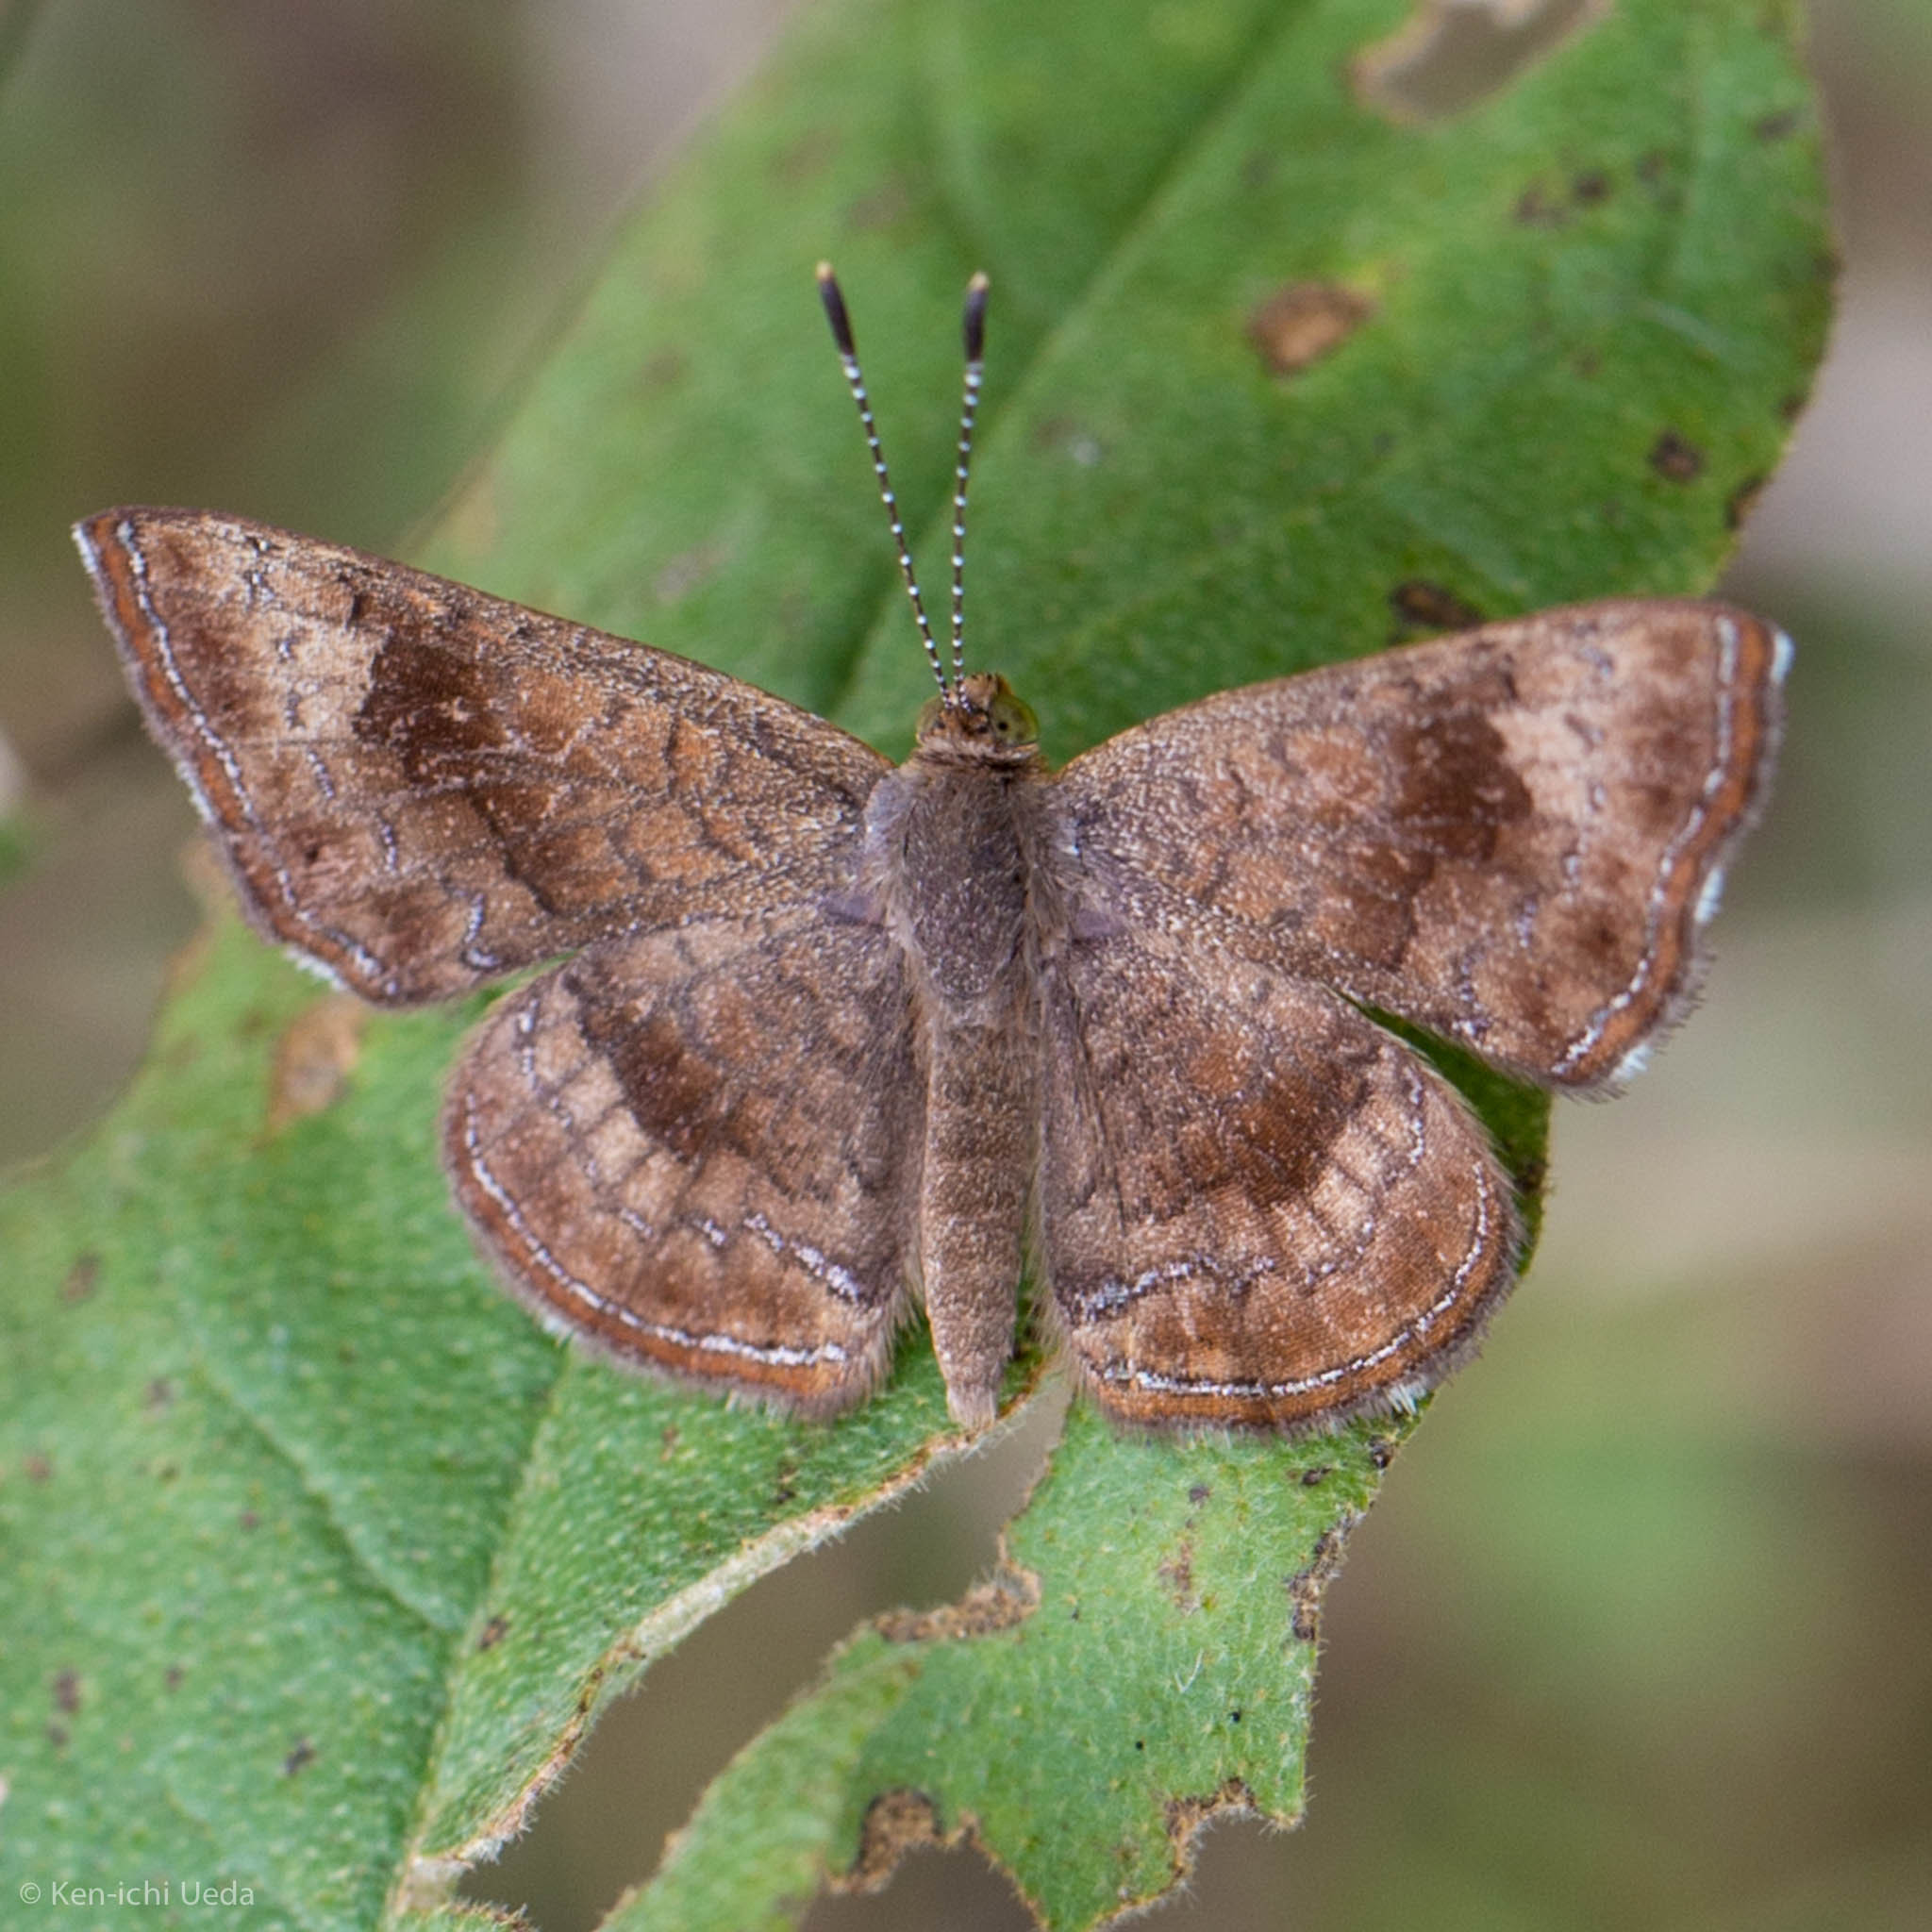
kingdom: Animalia
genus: Calephelis
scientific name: Calephelis nemesis
